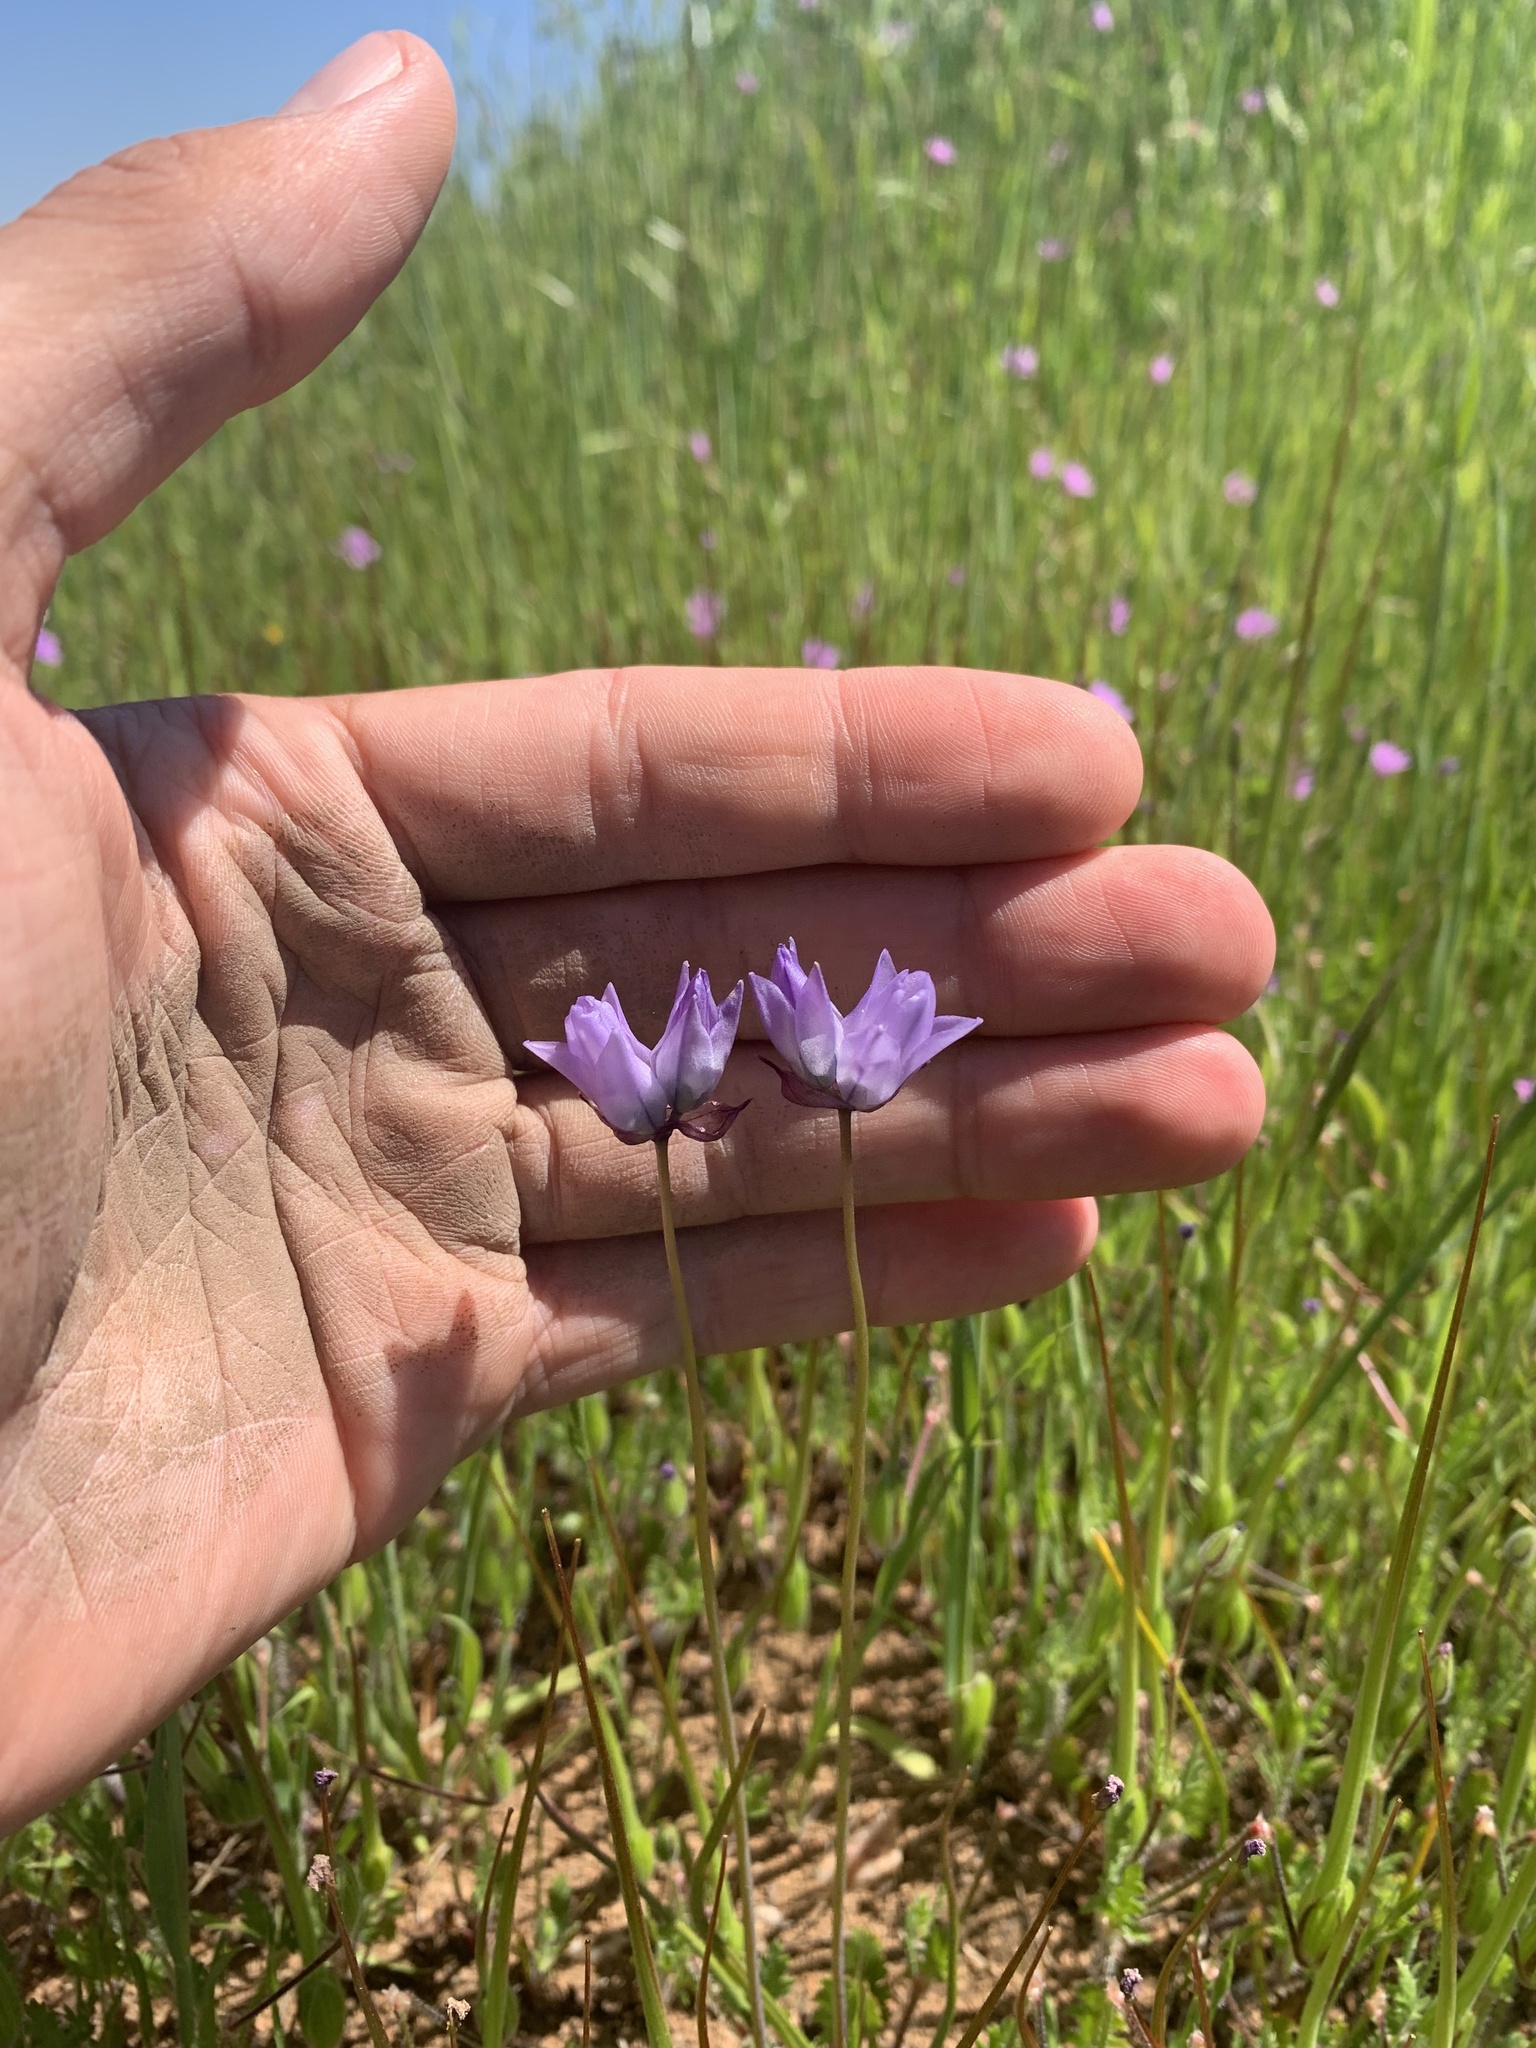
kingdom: Plantae
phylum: Tracheophyta
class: Liliopsida
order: Asparagales
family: Asparagaceae
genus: Dipterostemon
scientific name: Dipterostemon capitatus
